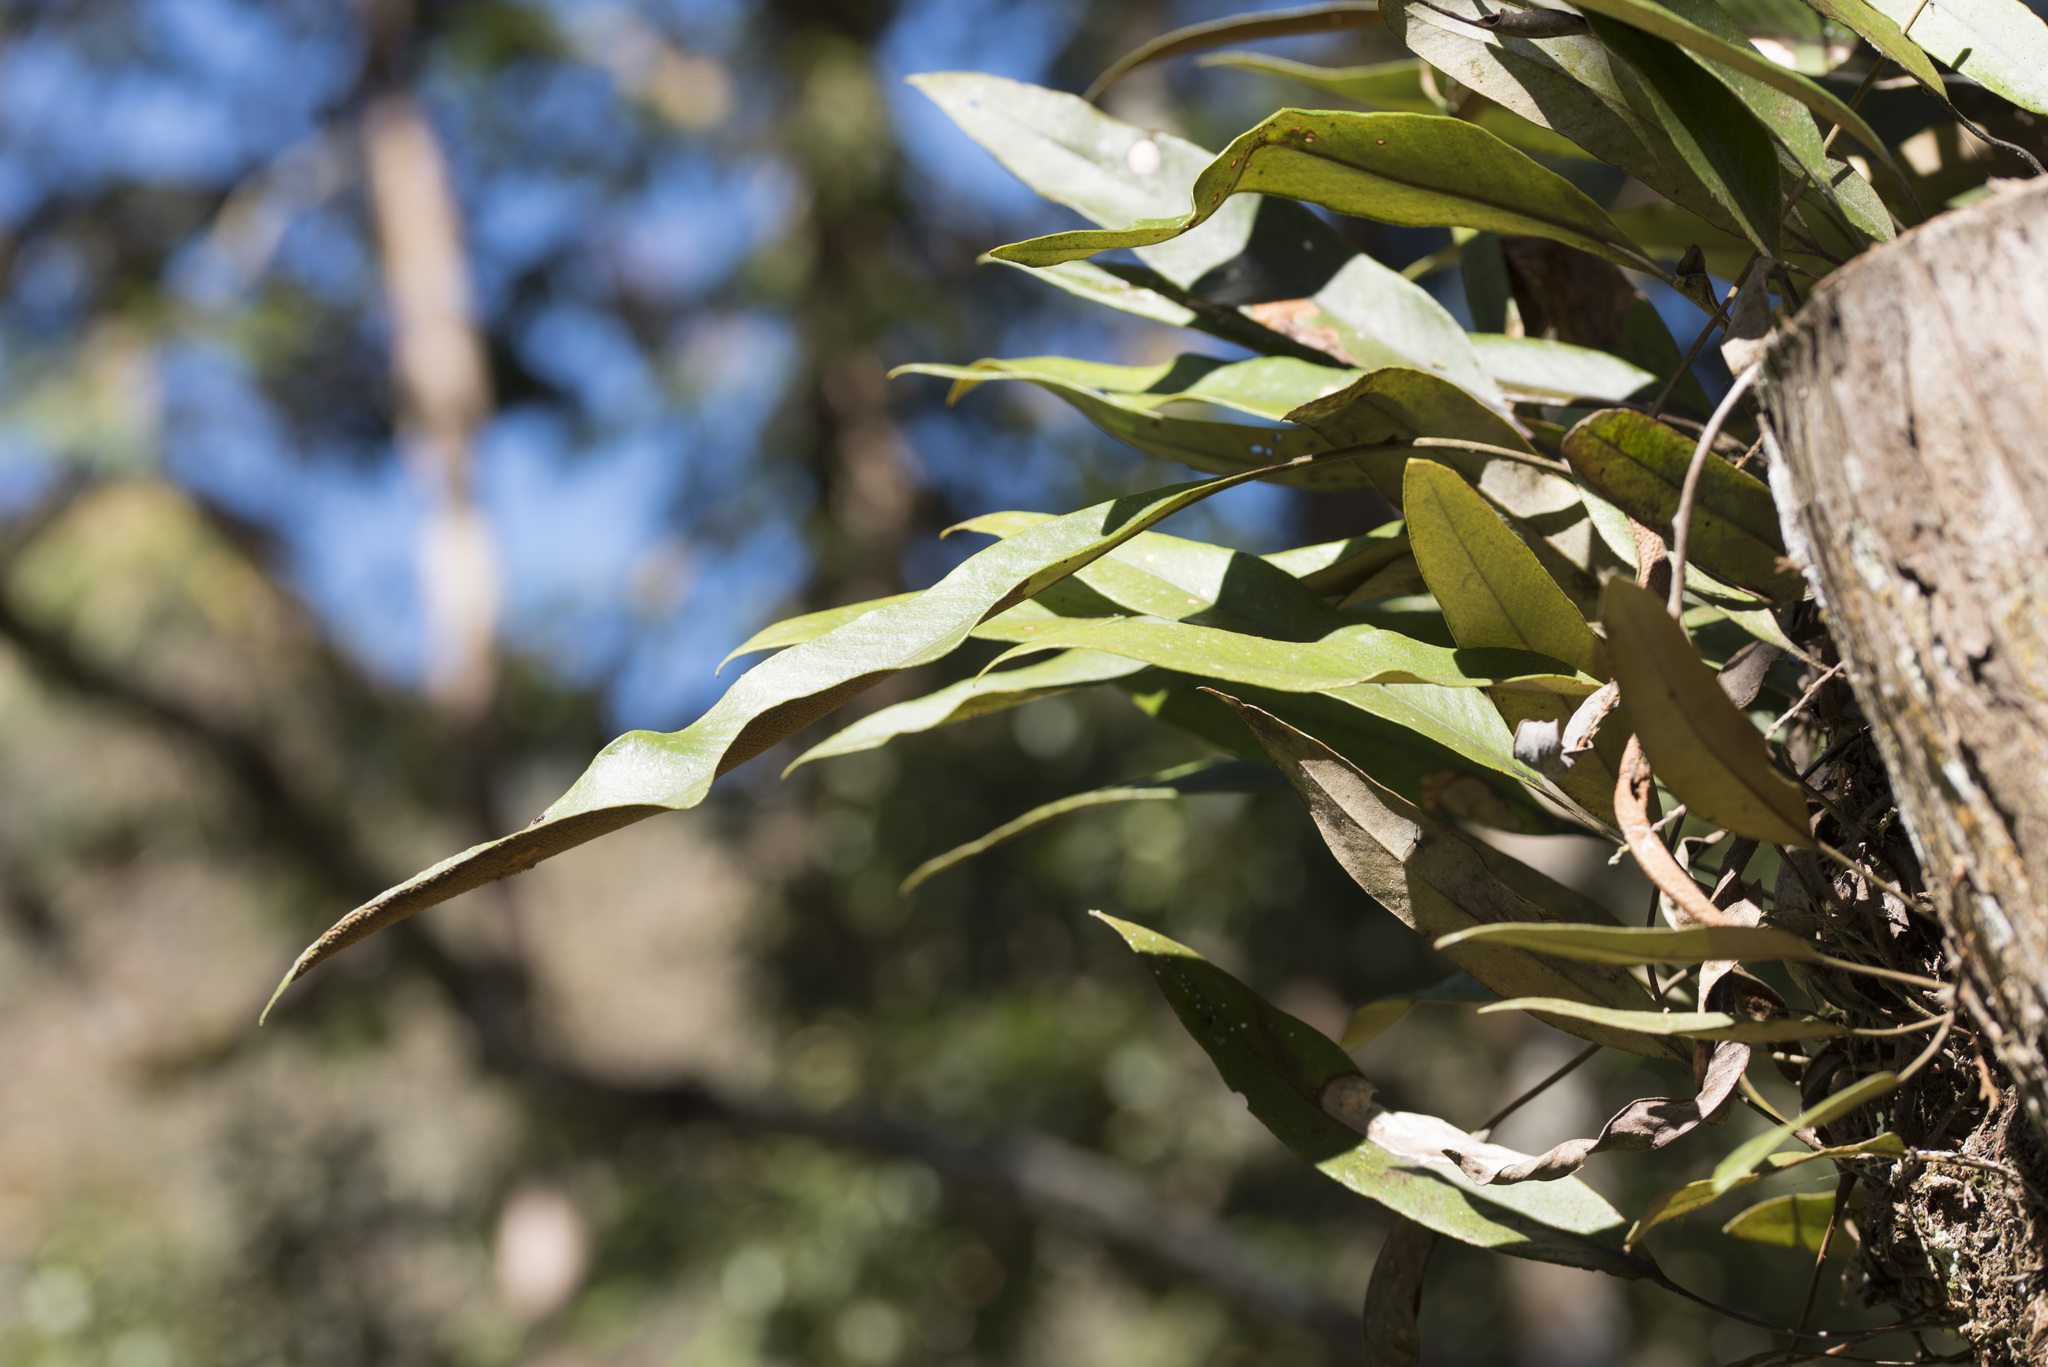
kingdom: Plantae
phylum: Tracheophyta
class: Polypodiopsida
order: Polypodiales
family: Polypodiaceae
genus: Pyrrosia
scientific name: Pyrrosia lingua
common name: Felt fern
